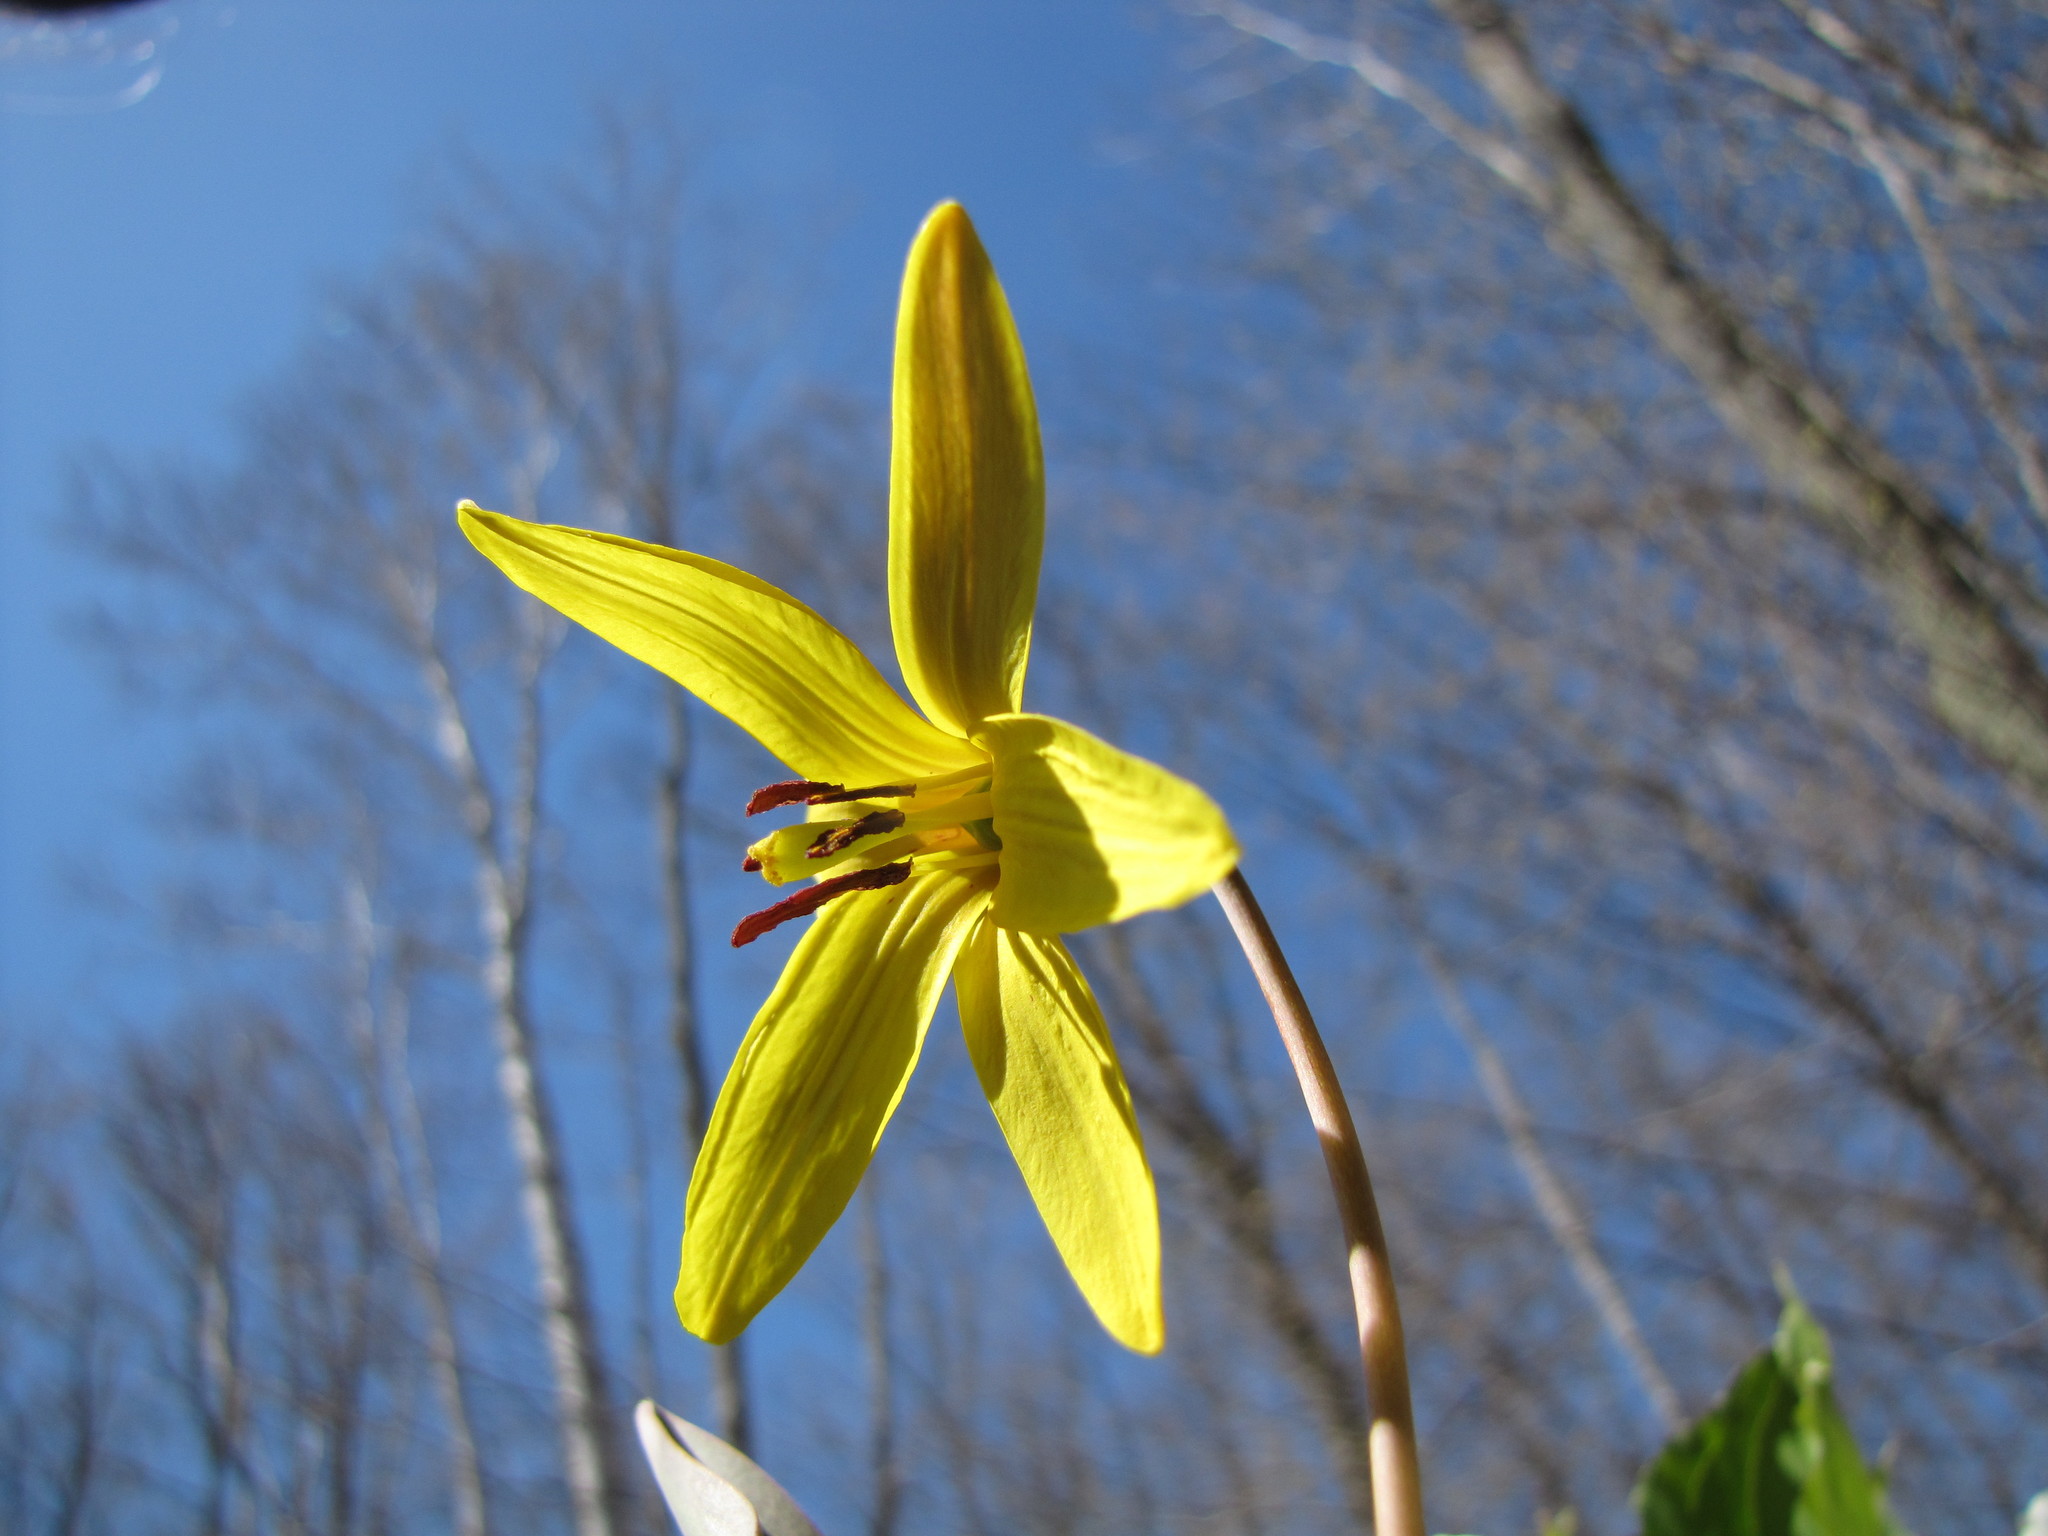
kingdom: Plantae
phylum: Tracheophyta
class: Liliopsida
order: Liliales
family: Liliaceae
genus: Erythronium
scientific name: Erythronium americanum
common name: Yellow adder's-tongue
